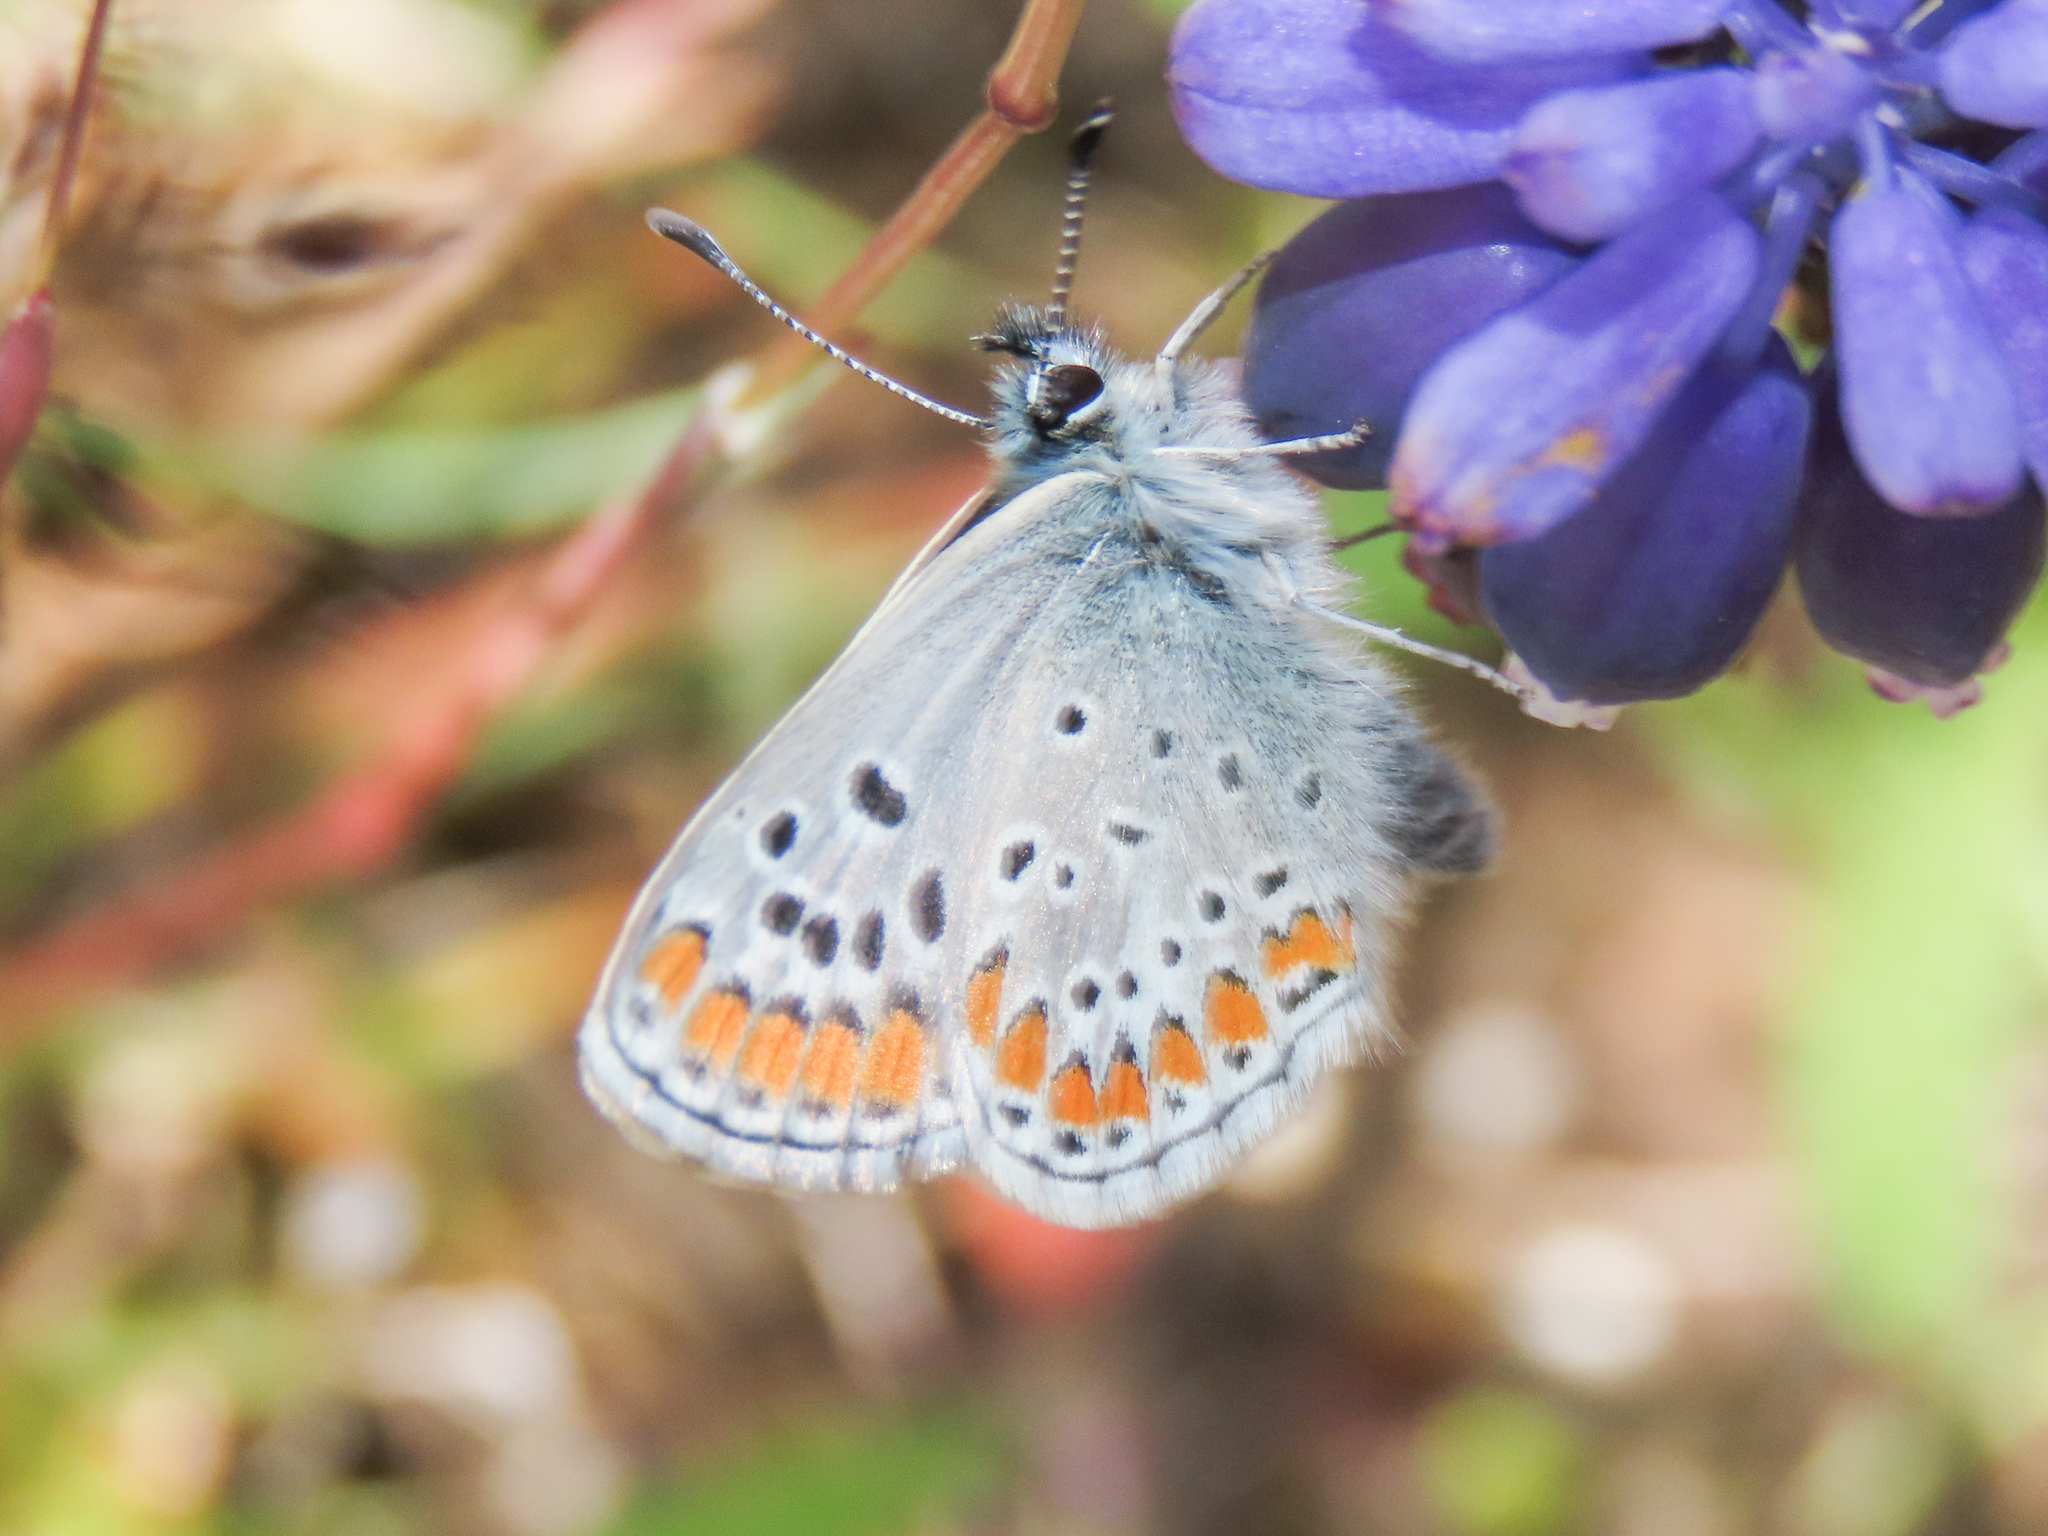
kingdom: Animalia
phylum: Arthropoda
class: Insecta
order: Lepidoptera
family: Lycaenidae
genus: Aricia
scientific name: Aricia agestis
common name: Brown argus
